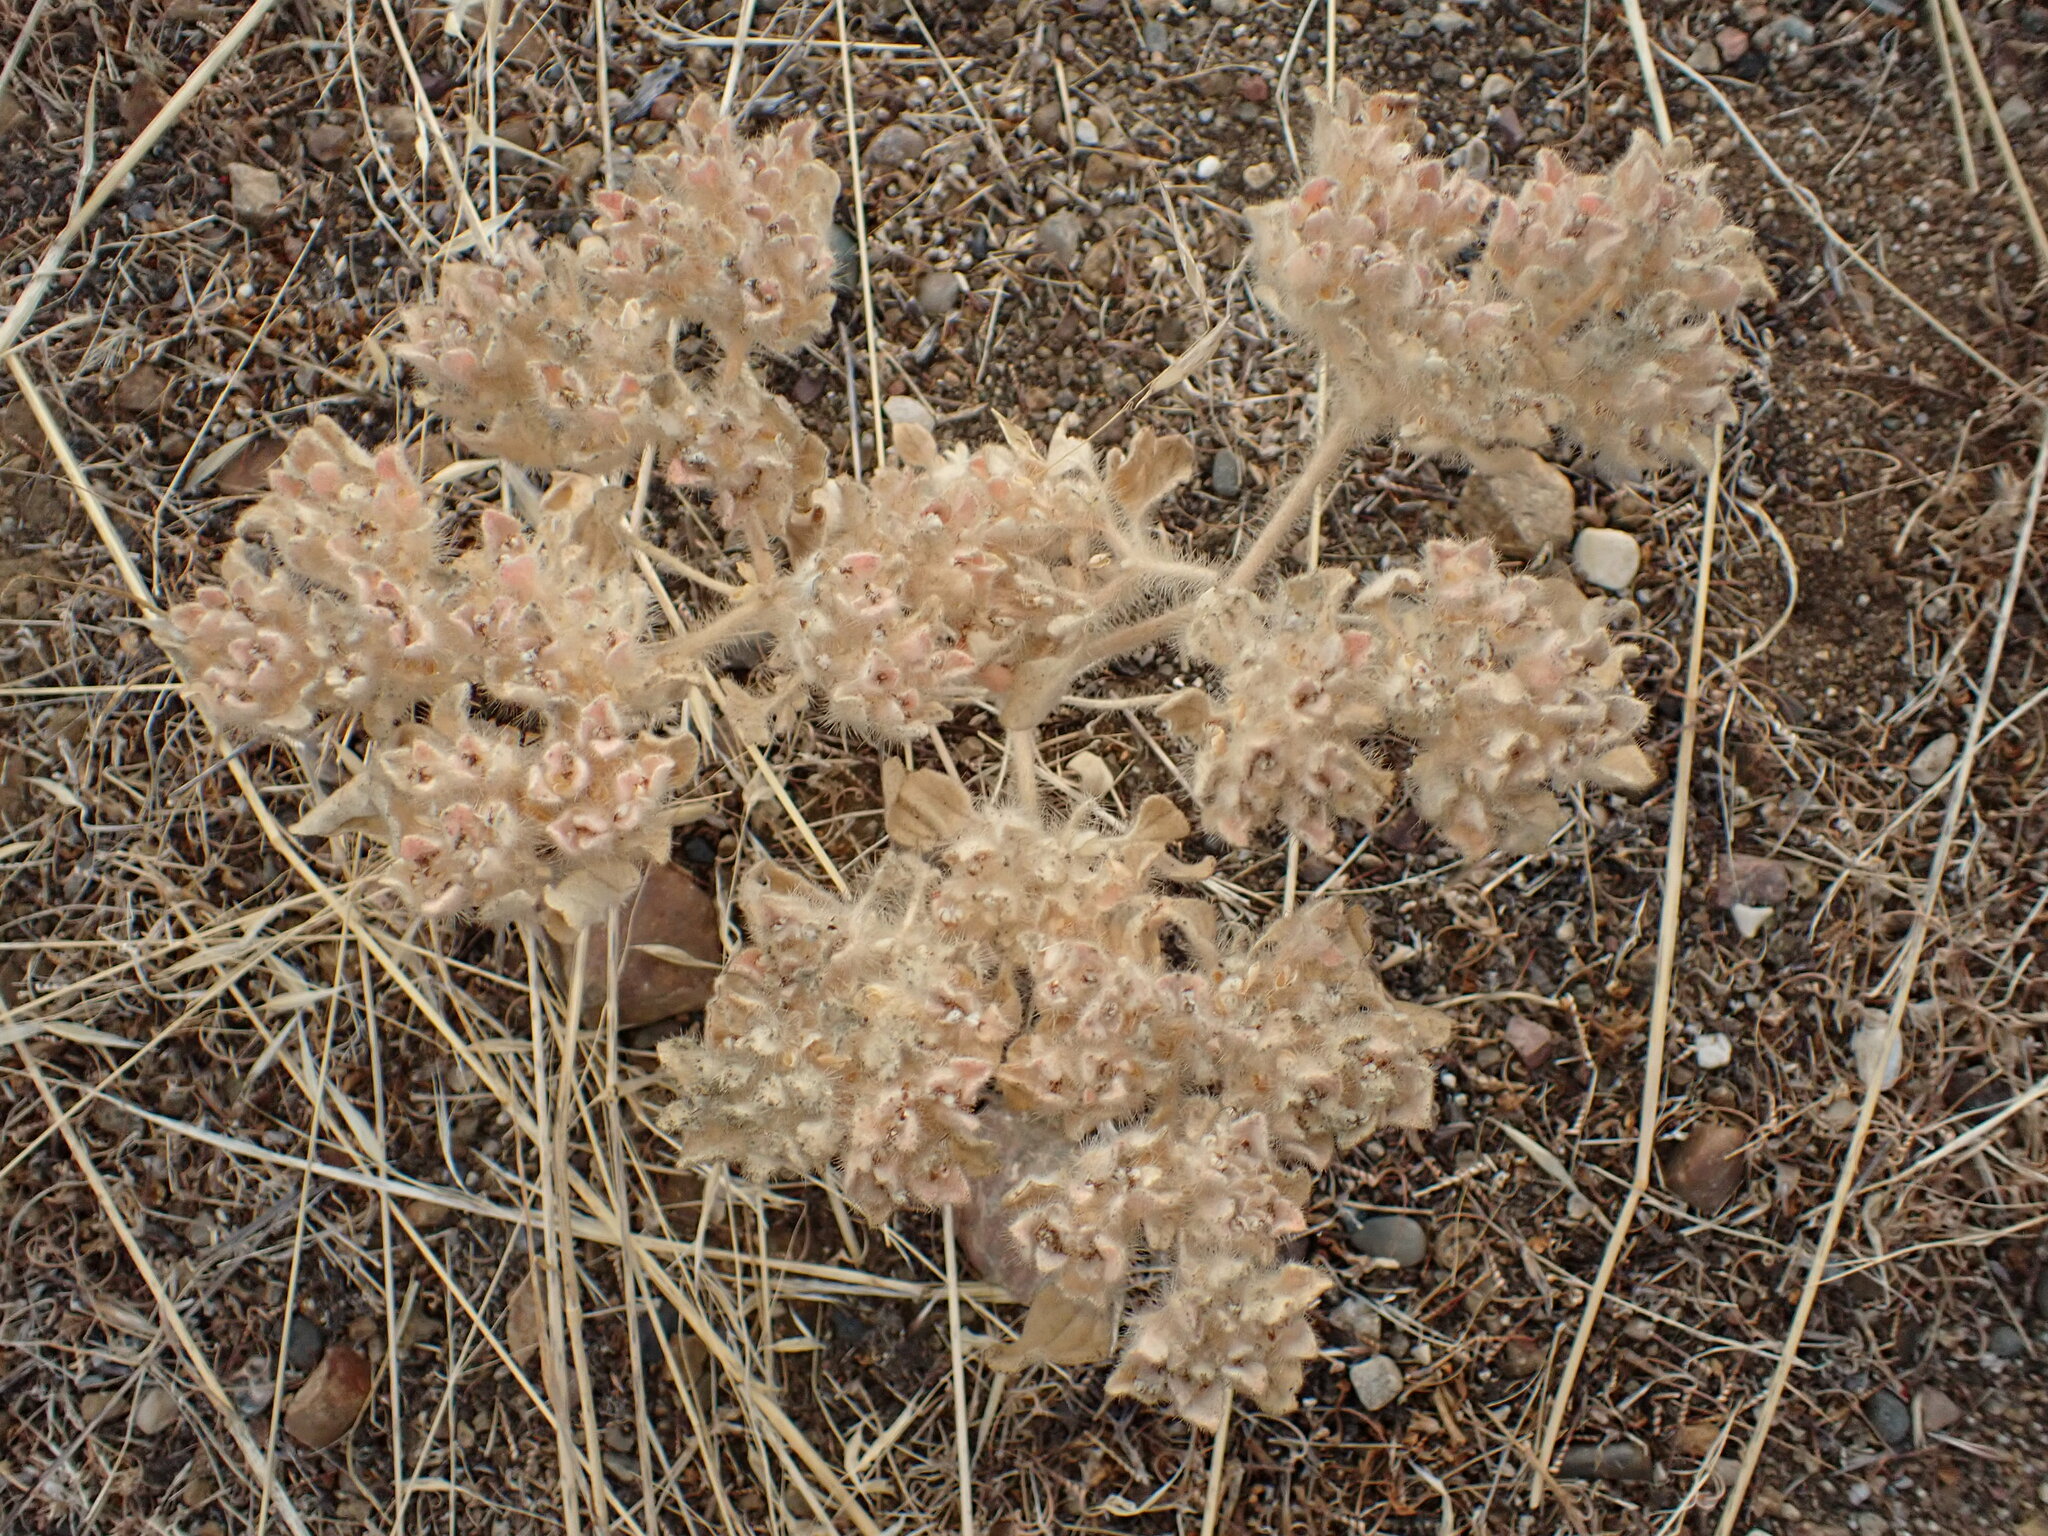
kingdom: Plantae
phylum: Tracheophyta
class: Magnoliopsida
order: Malpighiales
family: Euphorbiaceae
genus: Croton
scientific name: Croton setiger
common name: Dove weed
